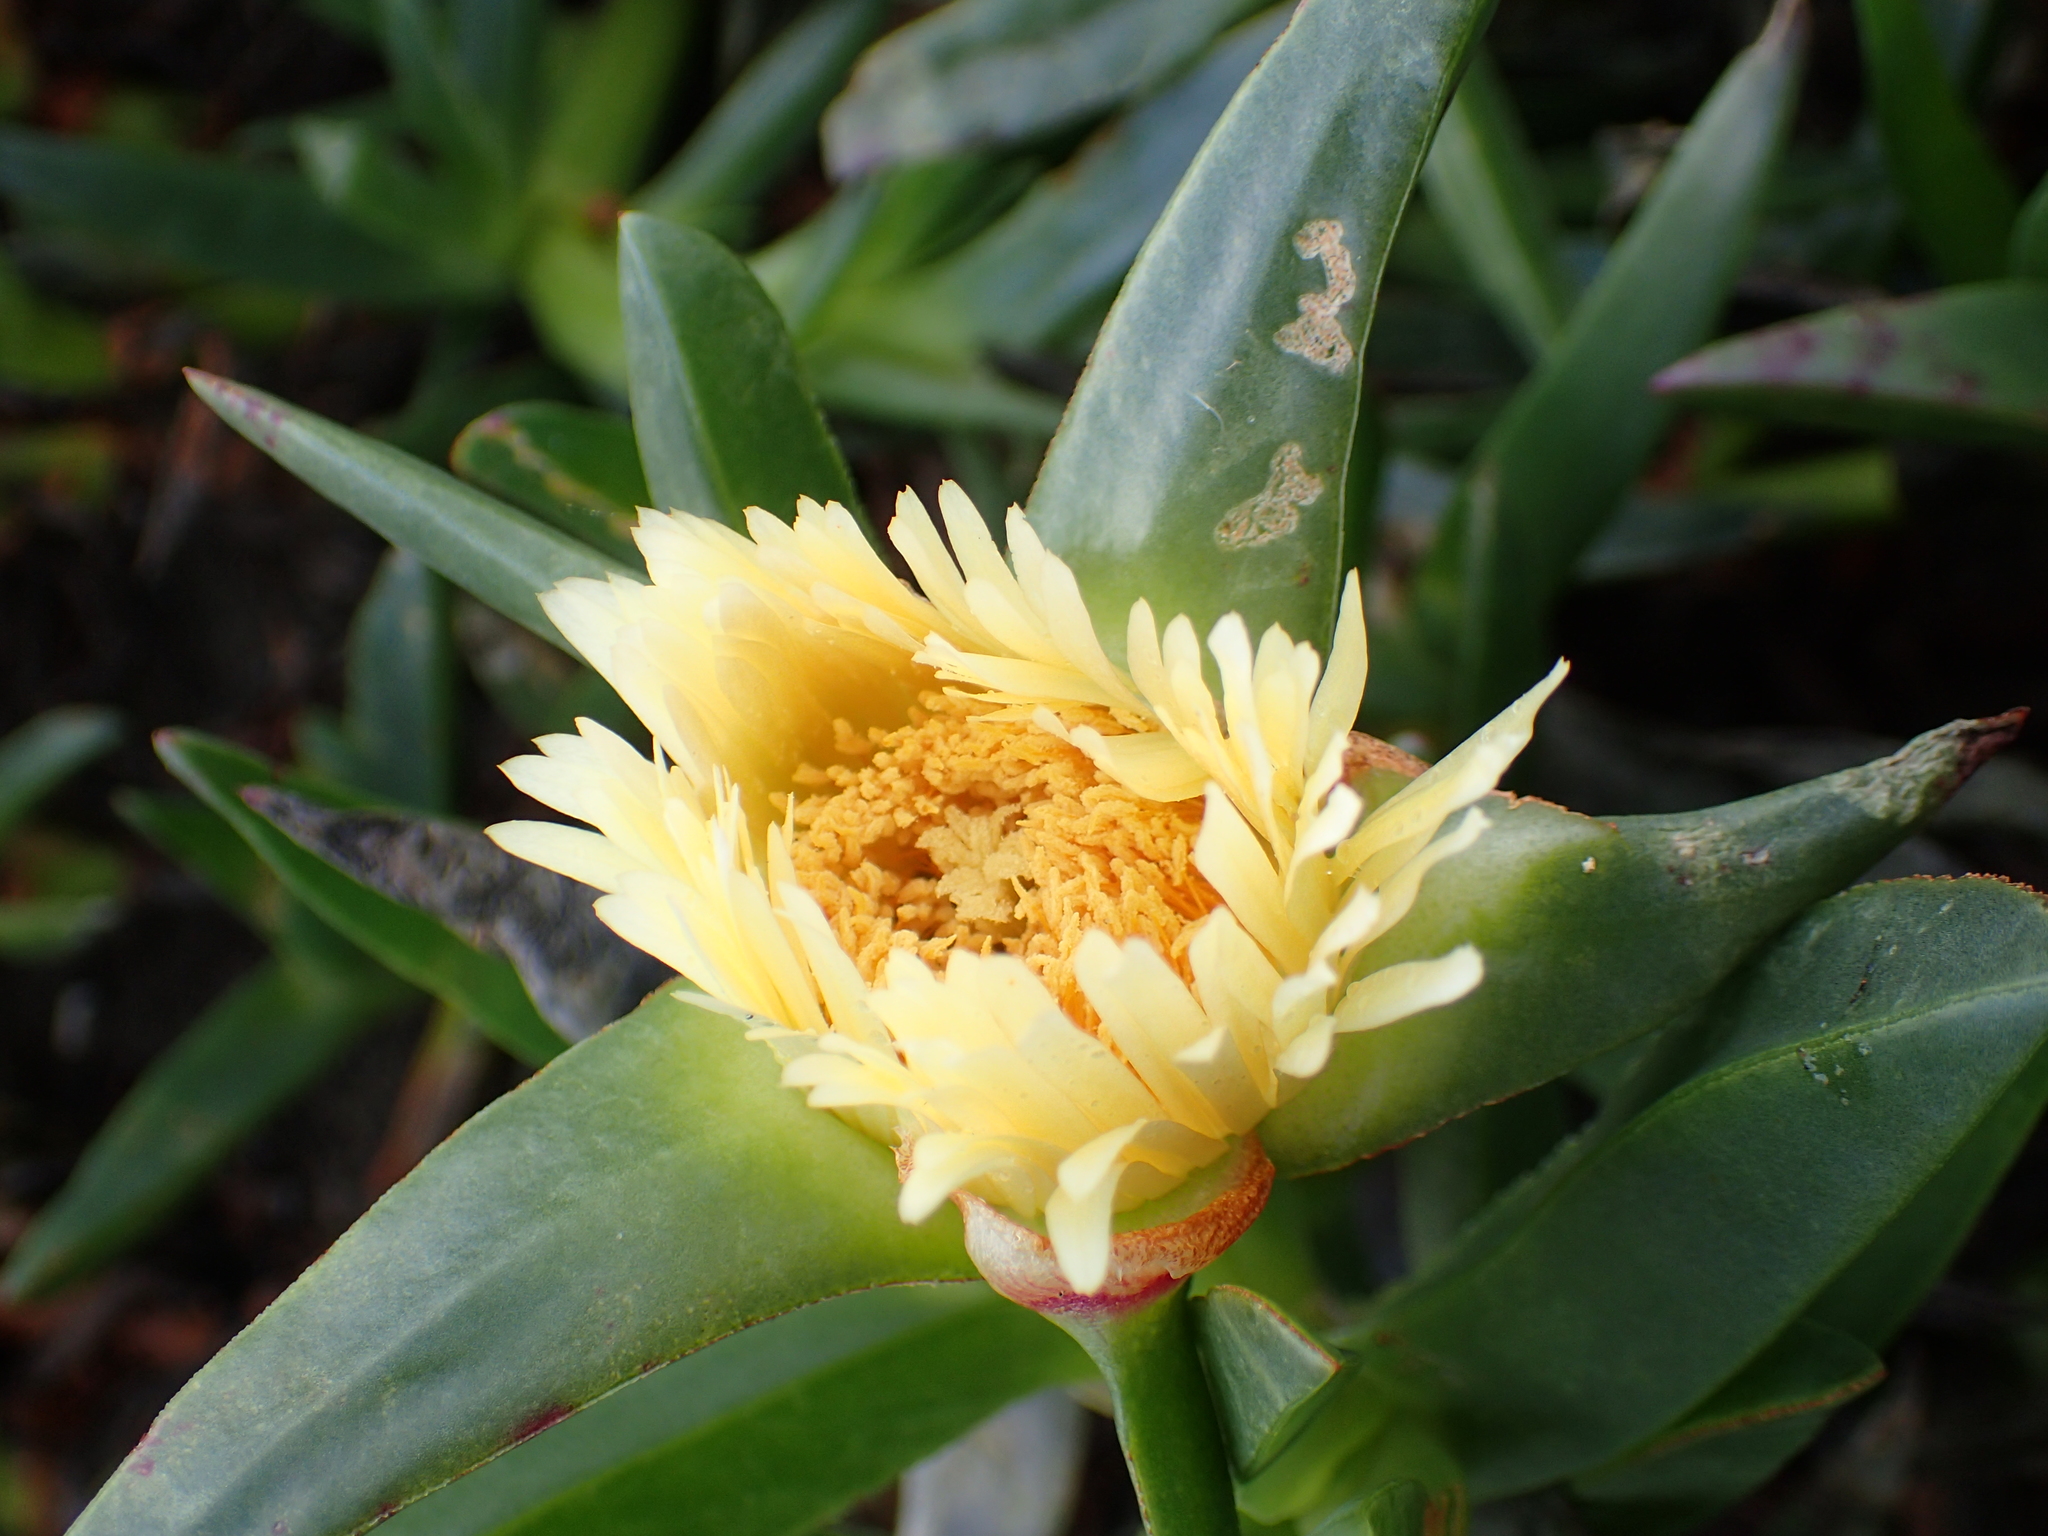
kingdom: Plantae
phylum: Tracheophyta
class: Magnoliopsida
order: Caryophyllales
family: Aizoaceae
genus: Carpobrotus
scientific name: Carpobrotus edulis
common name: Hottentot-fig
